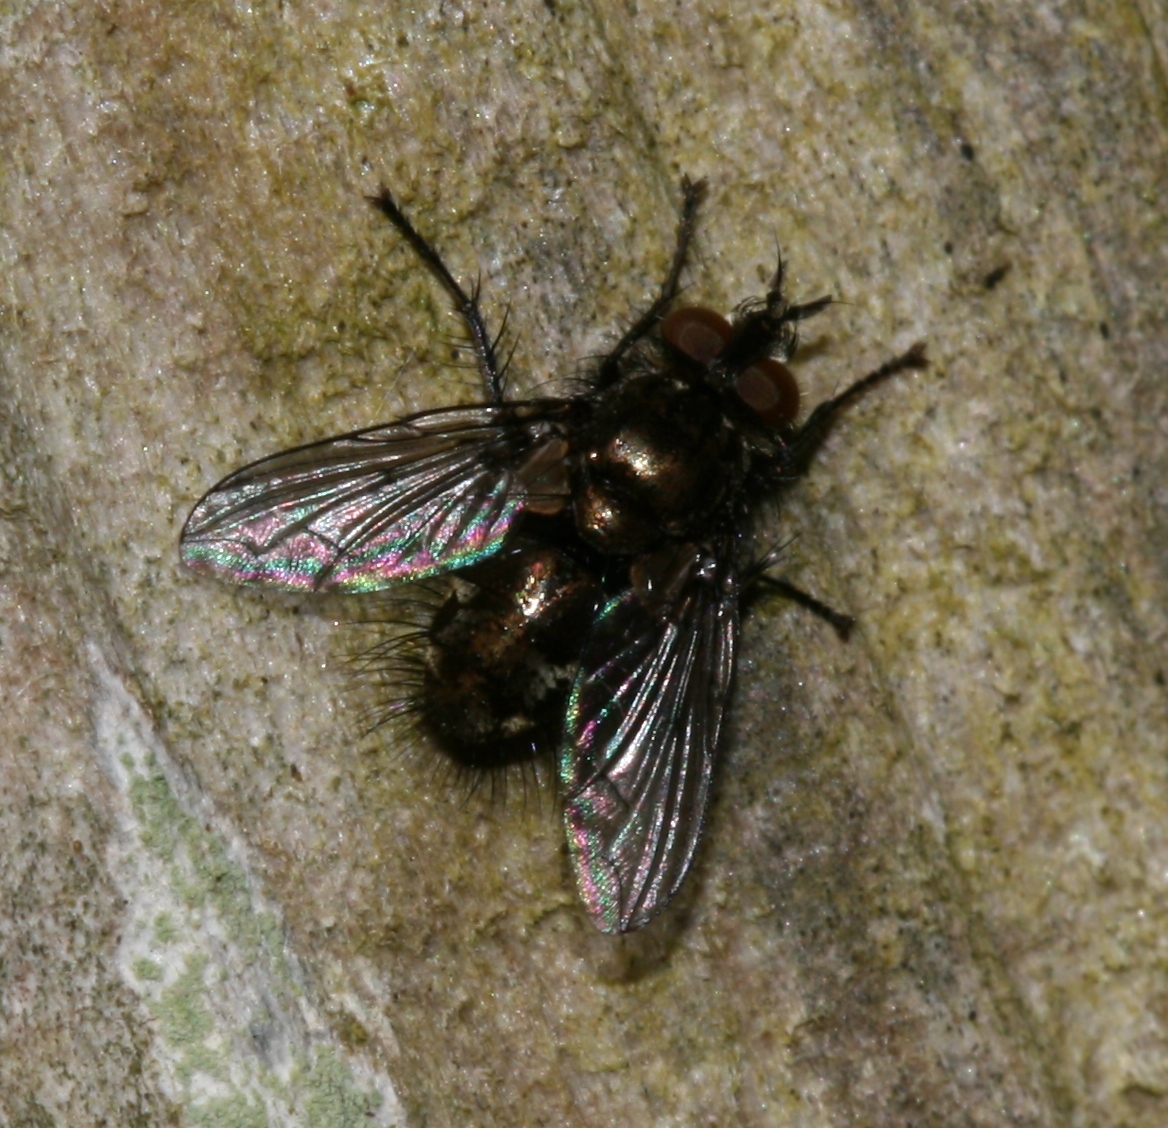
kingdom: Animalia
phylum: Arthropoda
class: Insecta
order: Diptera
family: Tachinidae
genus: Lypha
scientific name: Lypha dubia
